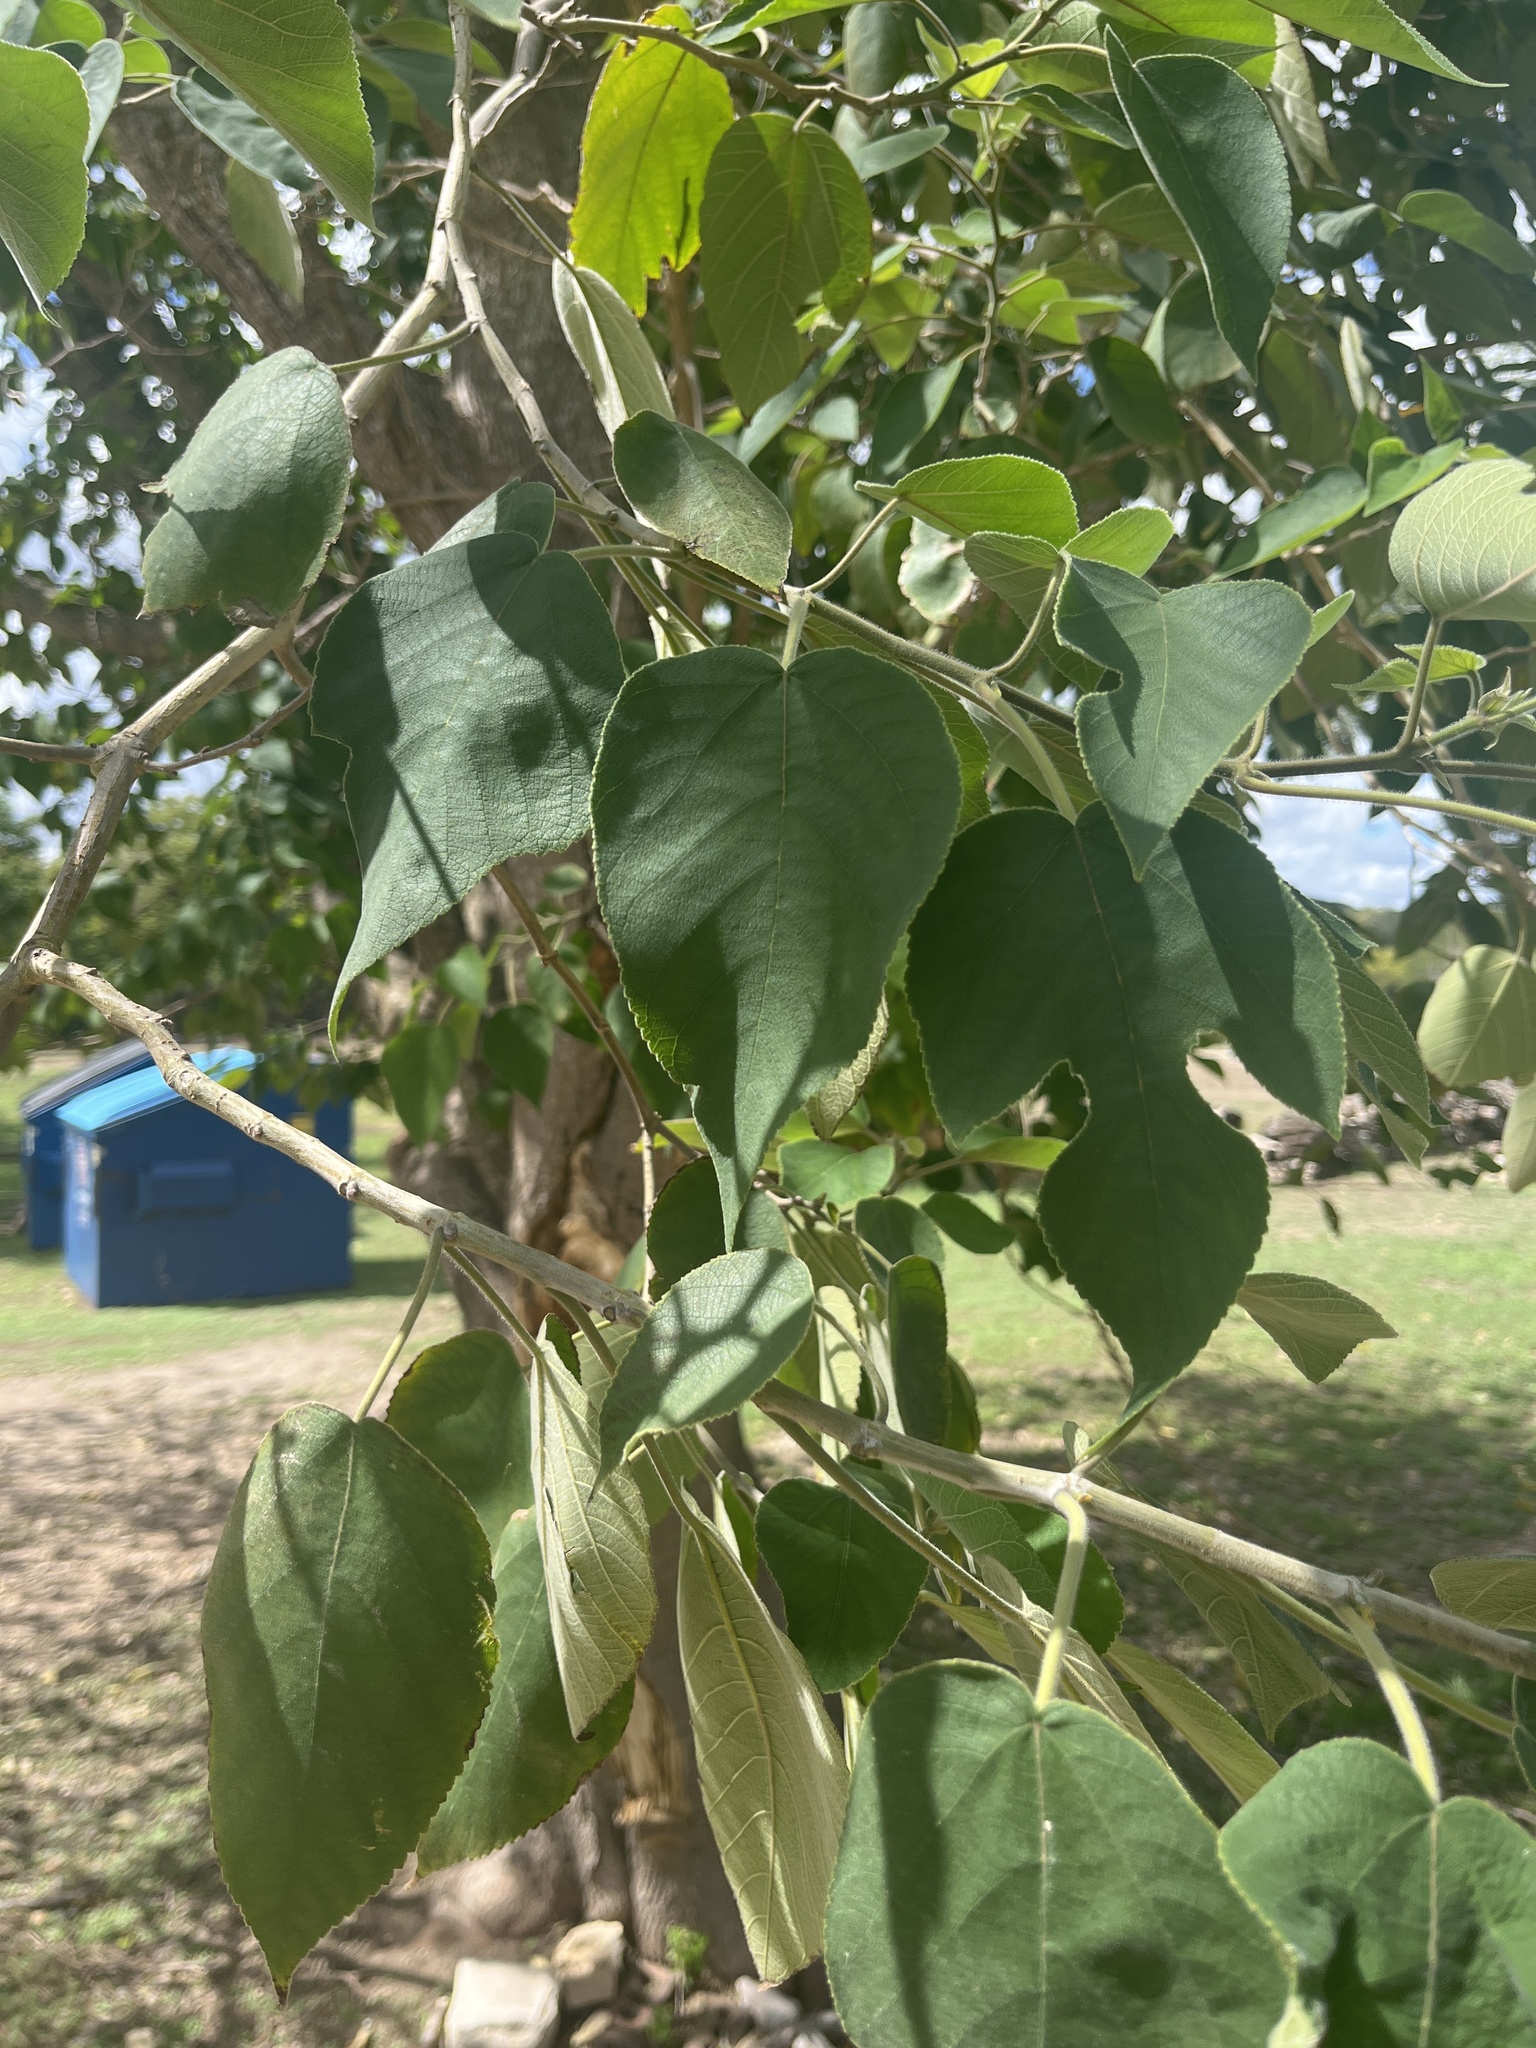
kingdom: Plantae
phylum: Tracheophyta
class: Magnoliopsida
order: Rosales
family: Moraceae
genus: Broussonetia
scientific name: Broussonetia papyrifera
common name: Paper mulberry
